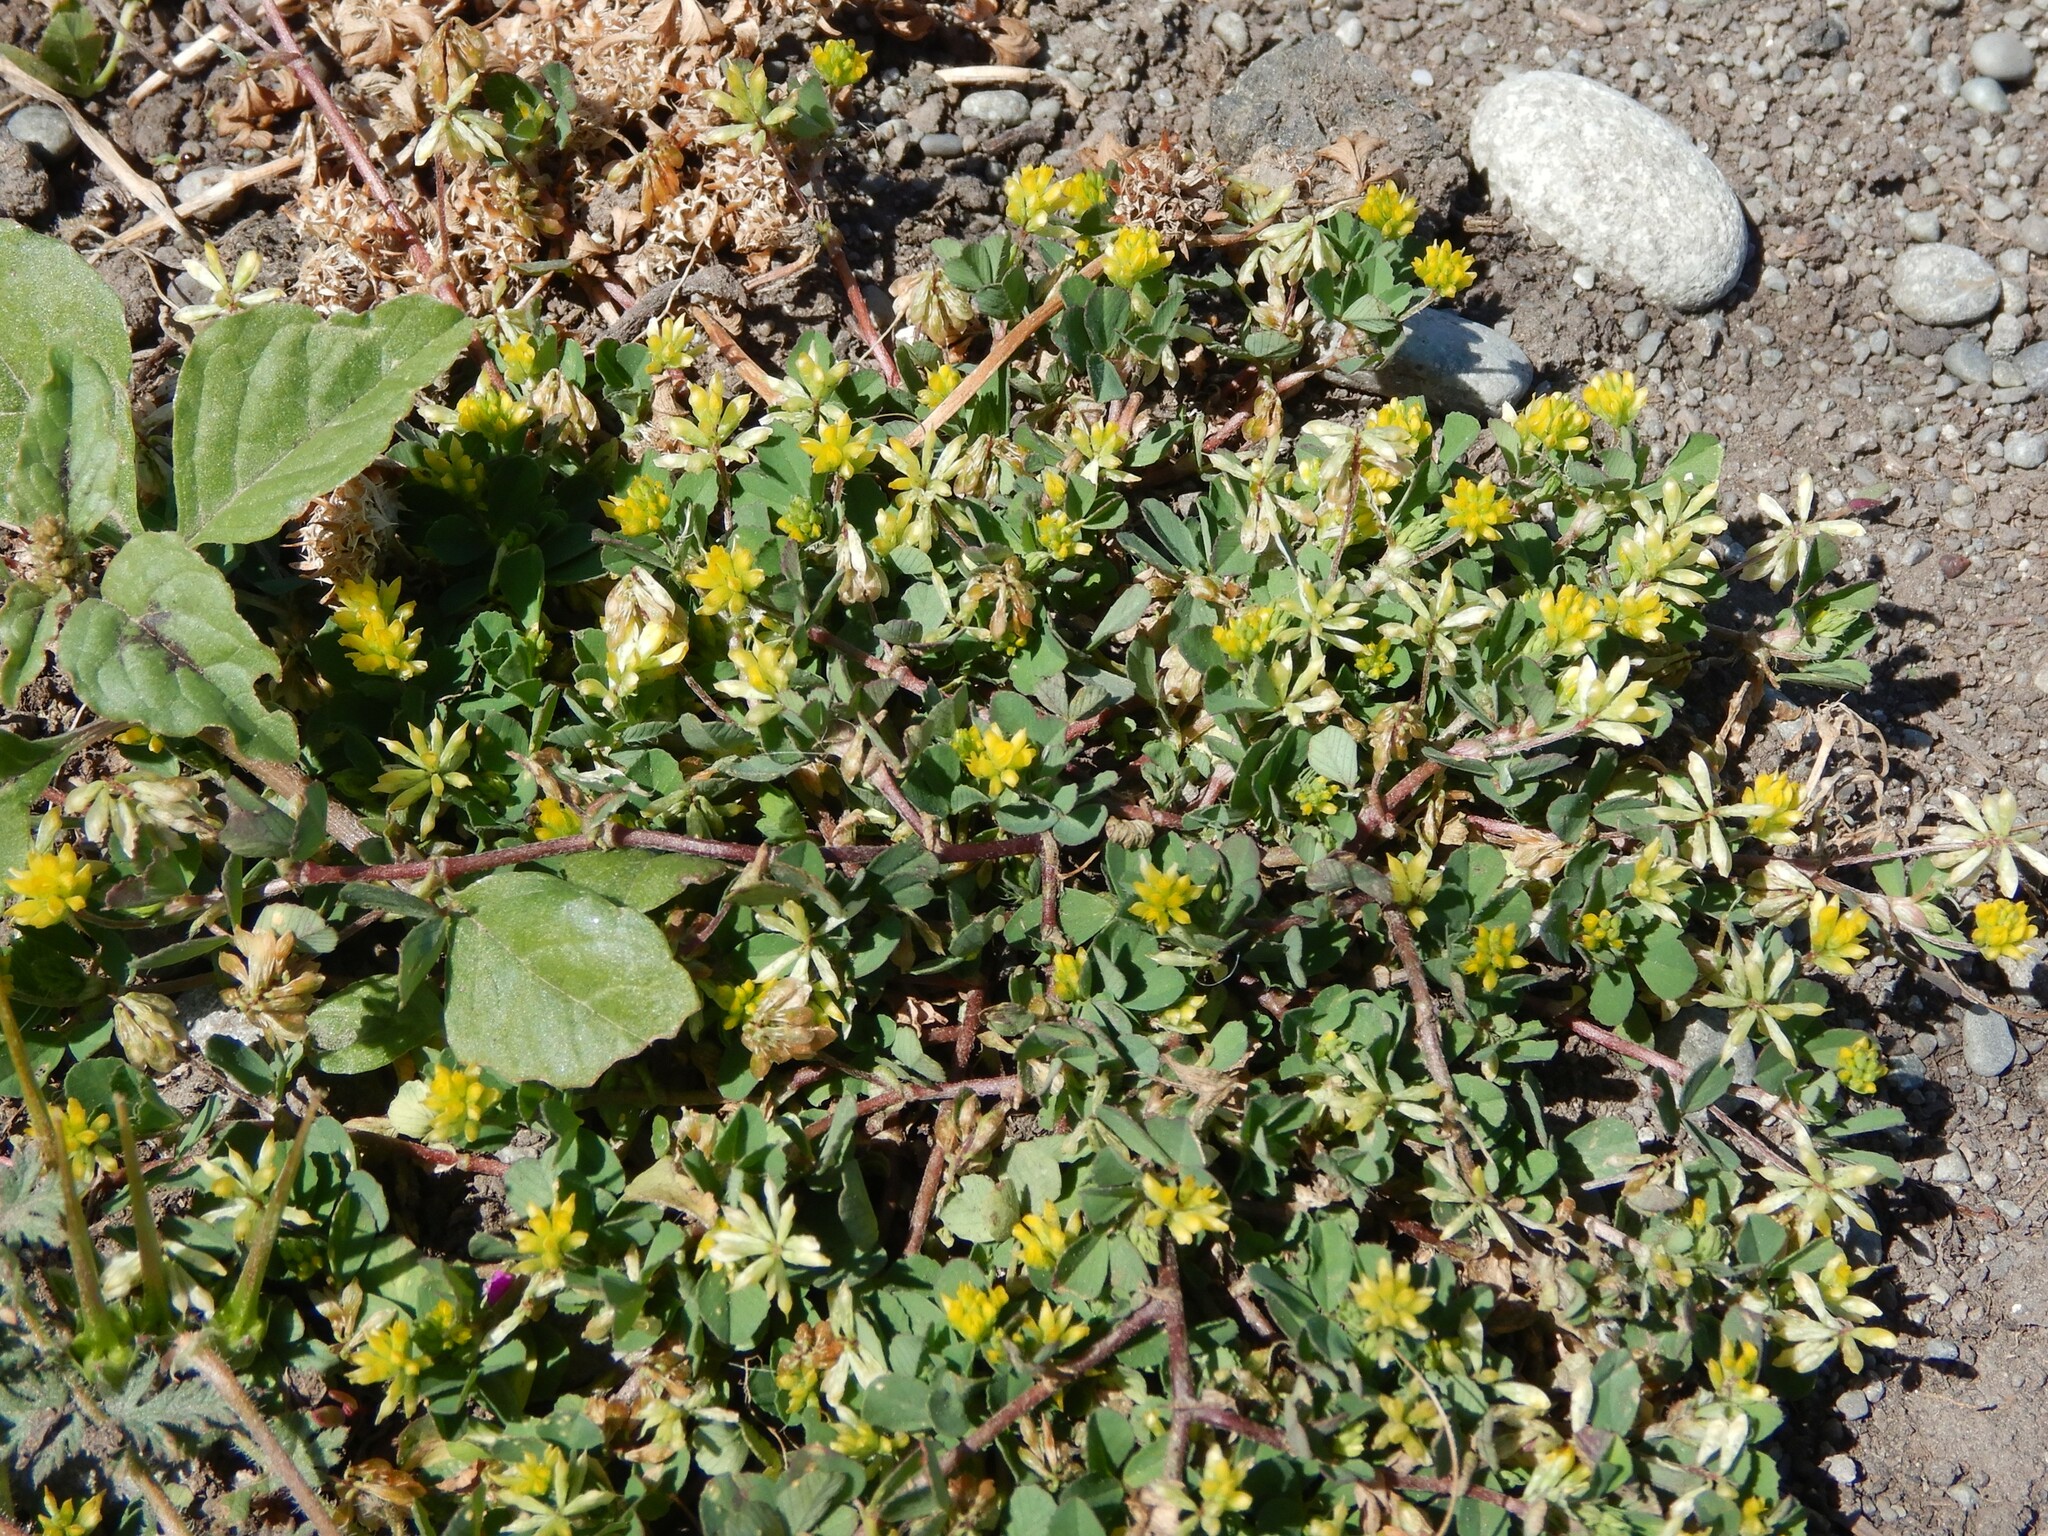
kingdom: Plantae
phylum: Tracheophyta
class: Magnoliopsida
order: Fabales
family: Fabaceae
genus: Trifolium
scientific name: Trifolium dubium
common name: Suckling clover
